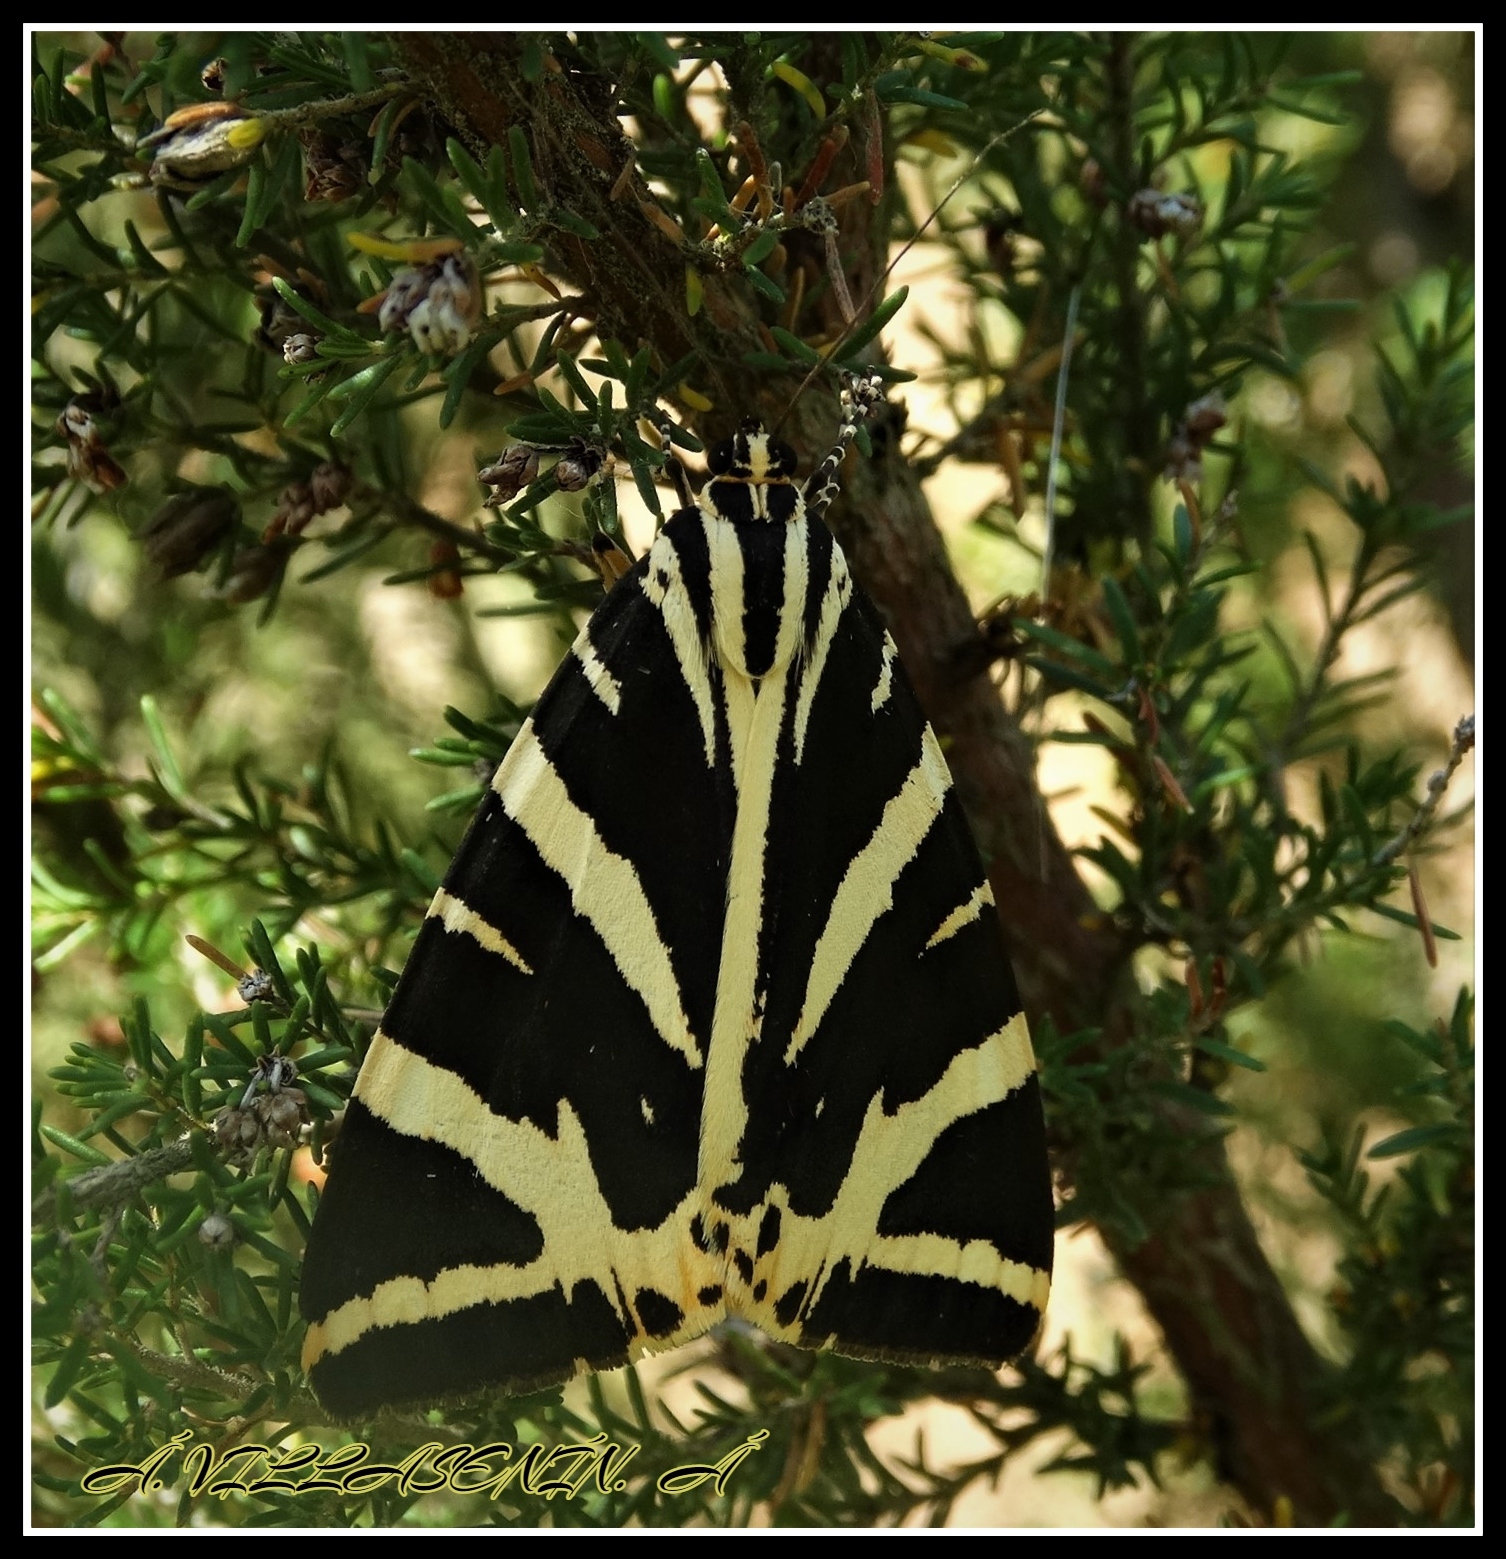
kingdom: Animalia
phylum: Arthropoda
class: Insecta
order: Lepidoptera
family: Erebidae
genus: Euplagia
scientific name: Euplagia quadripunctaria
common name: Jersey tiger
